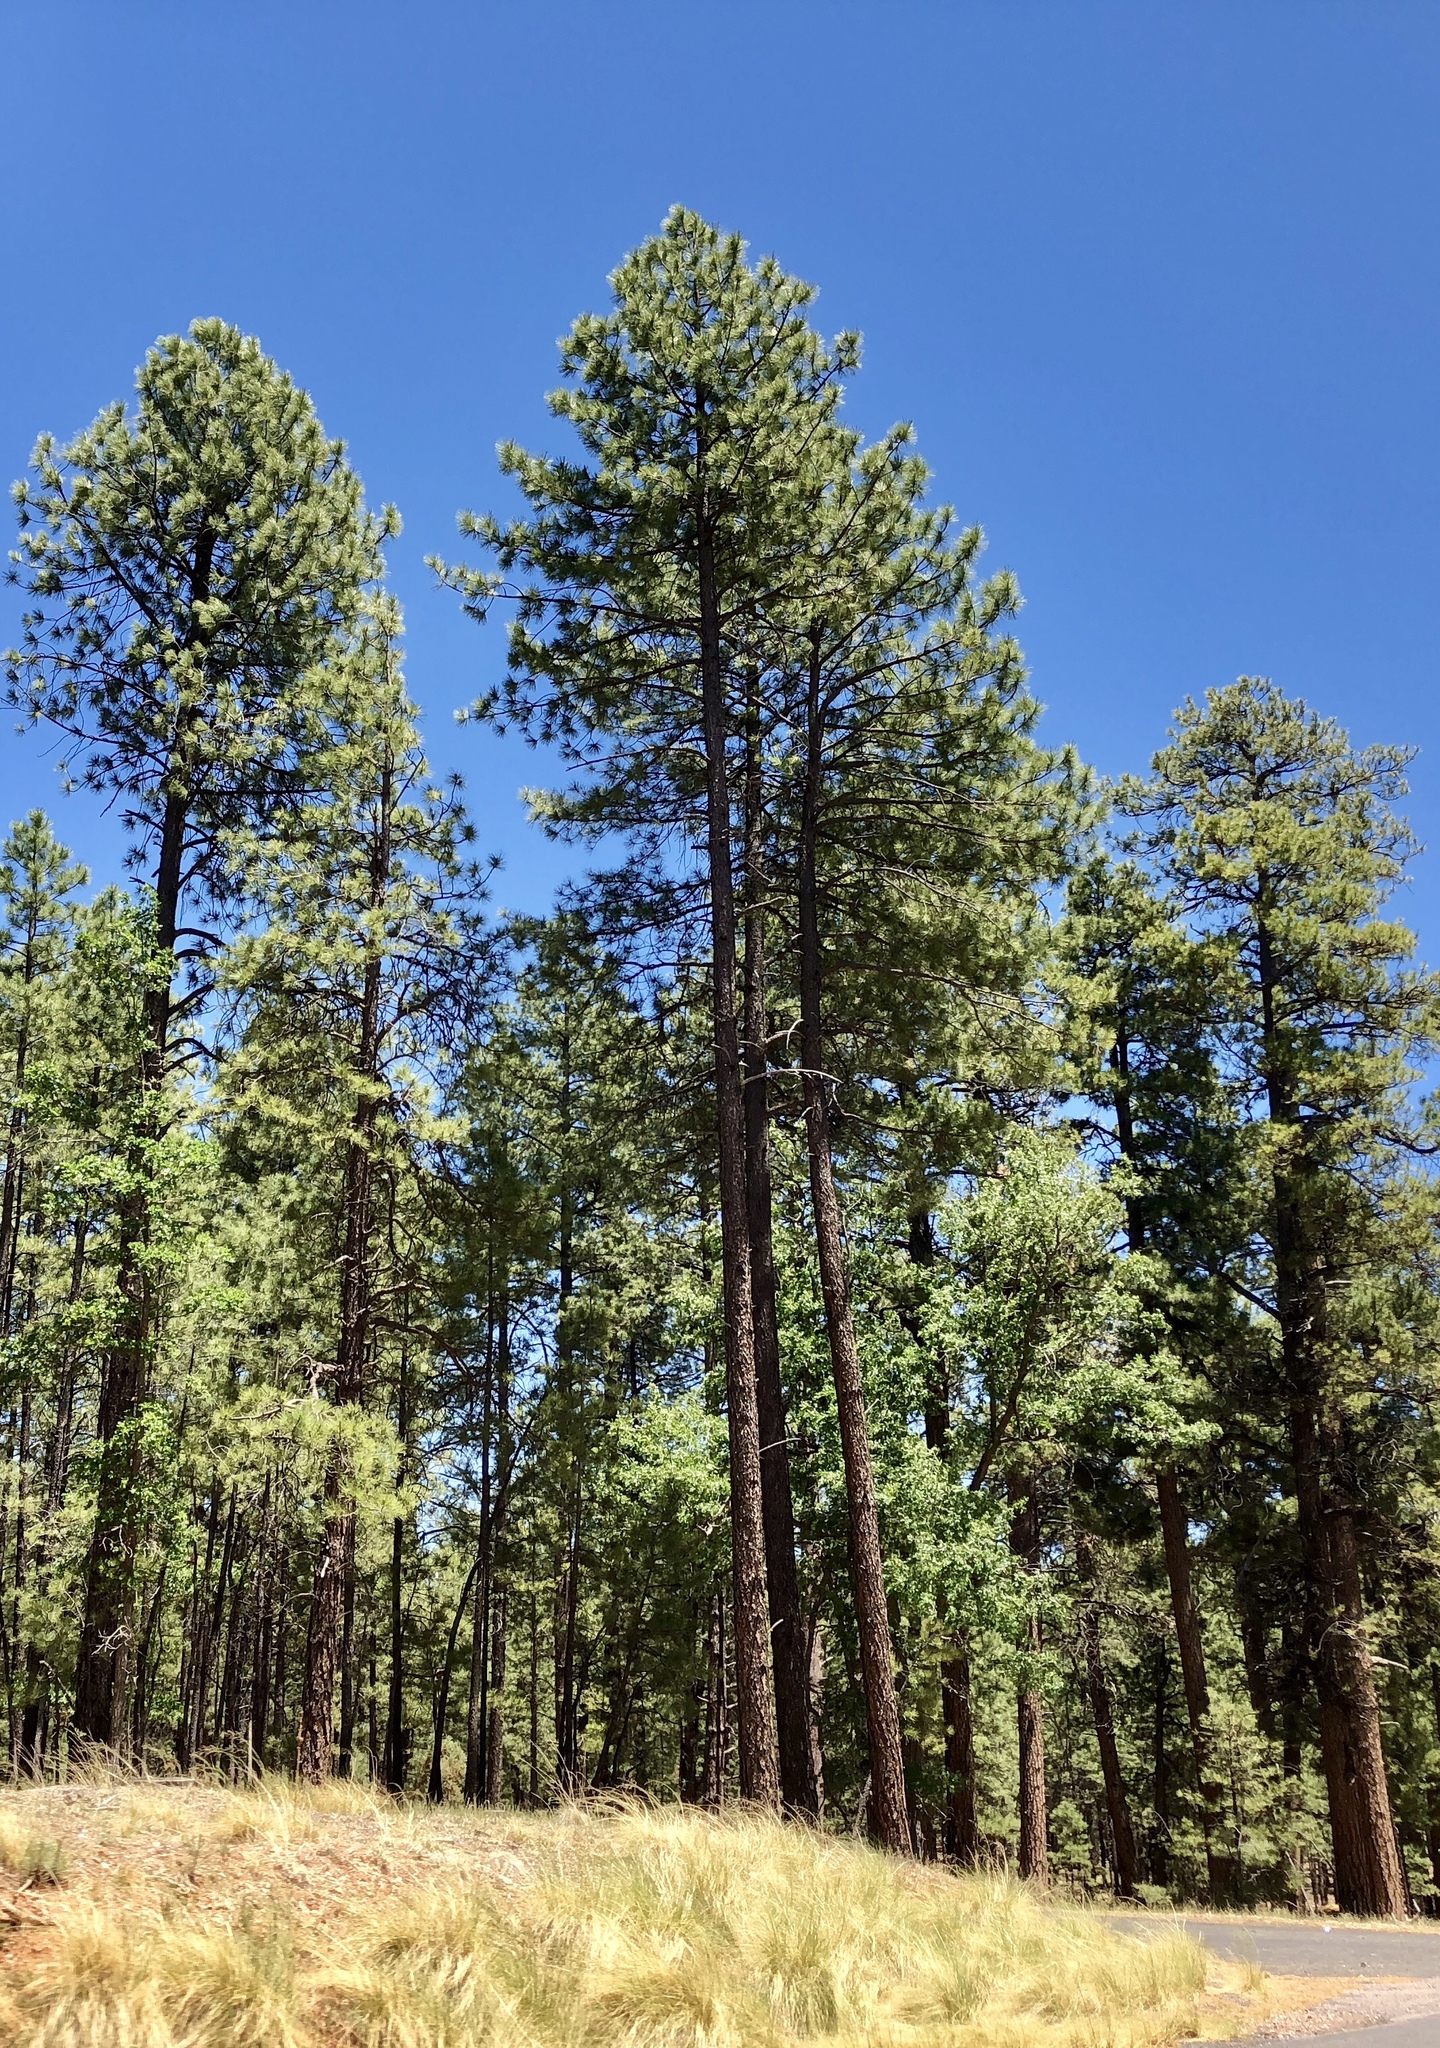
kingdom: Plantae
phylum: Tracheophyta
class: Pinopsida
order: Pinales
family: Pinaceae
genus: Pinus
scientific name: Pinus ponderosa
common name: Western yellow-pine
